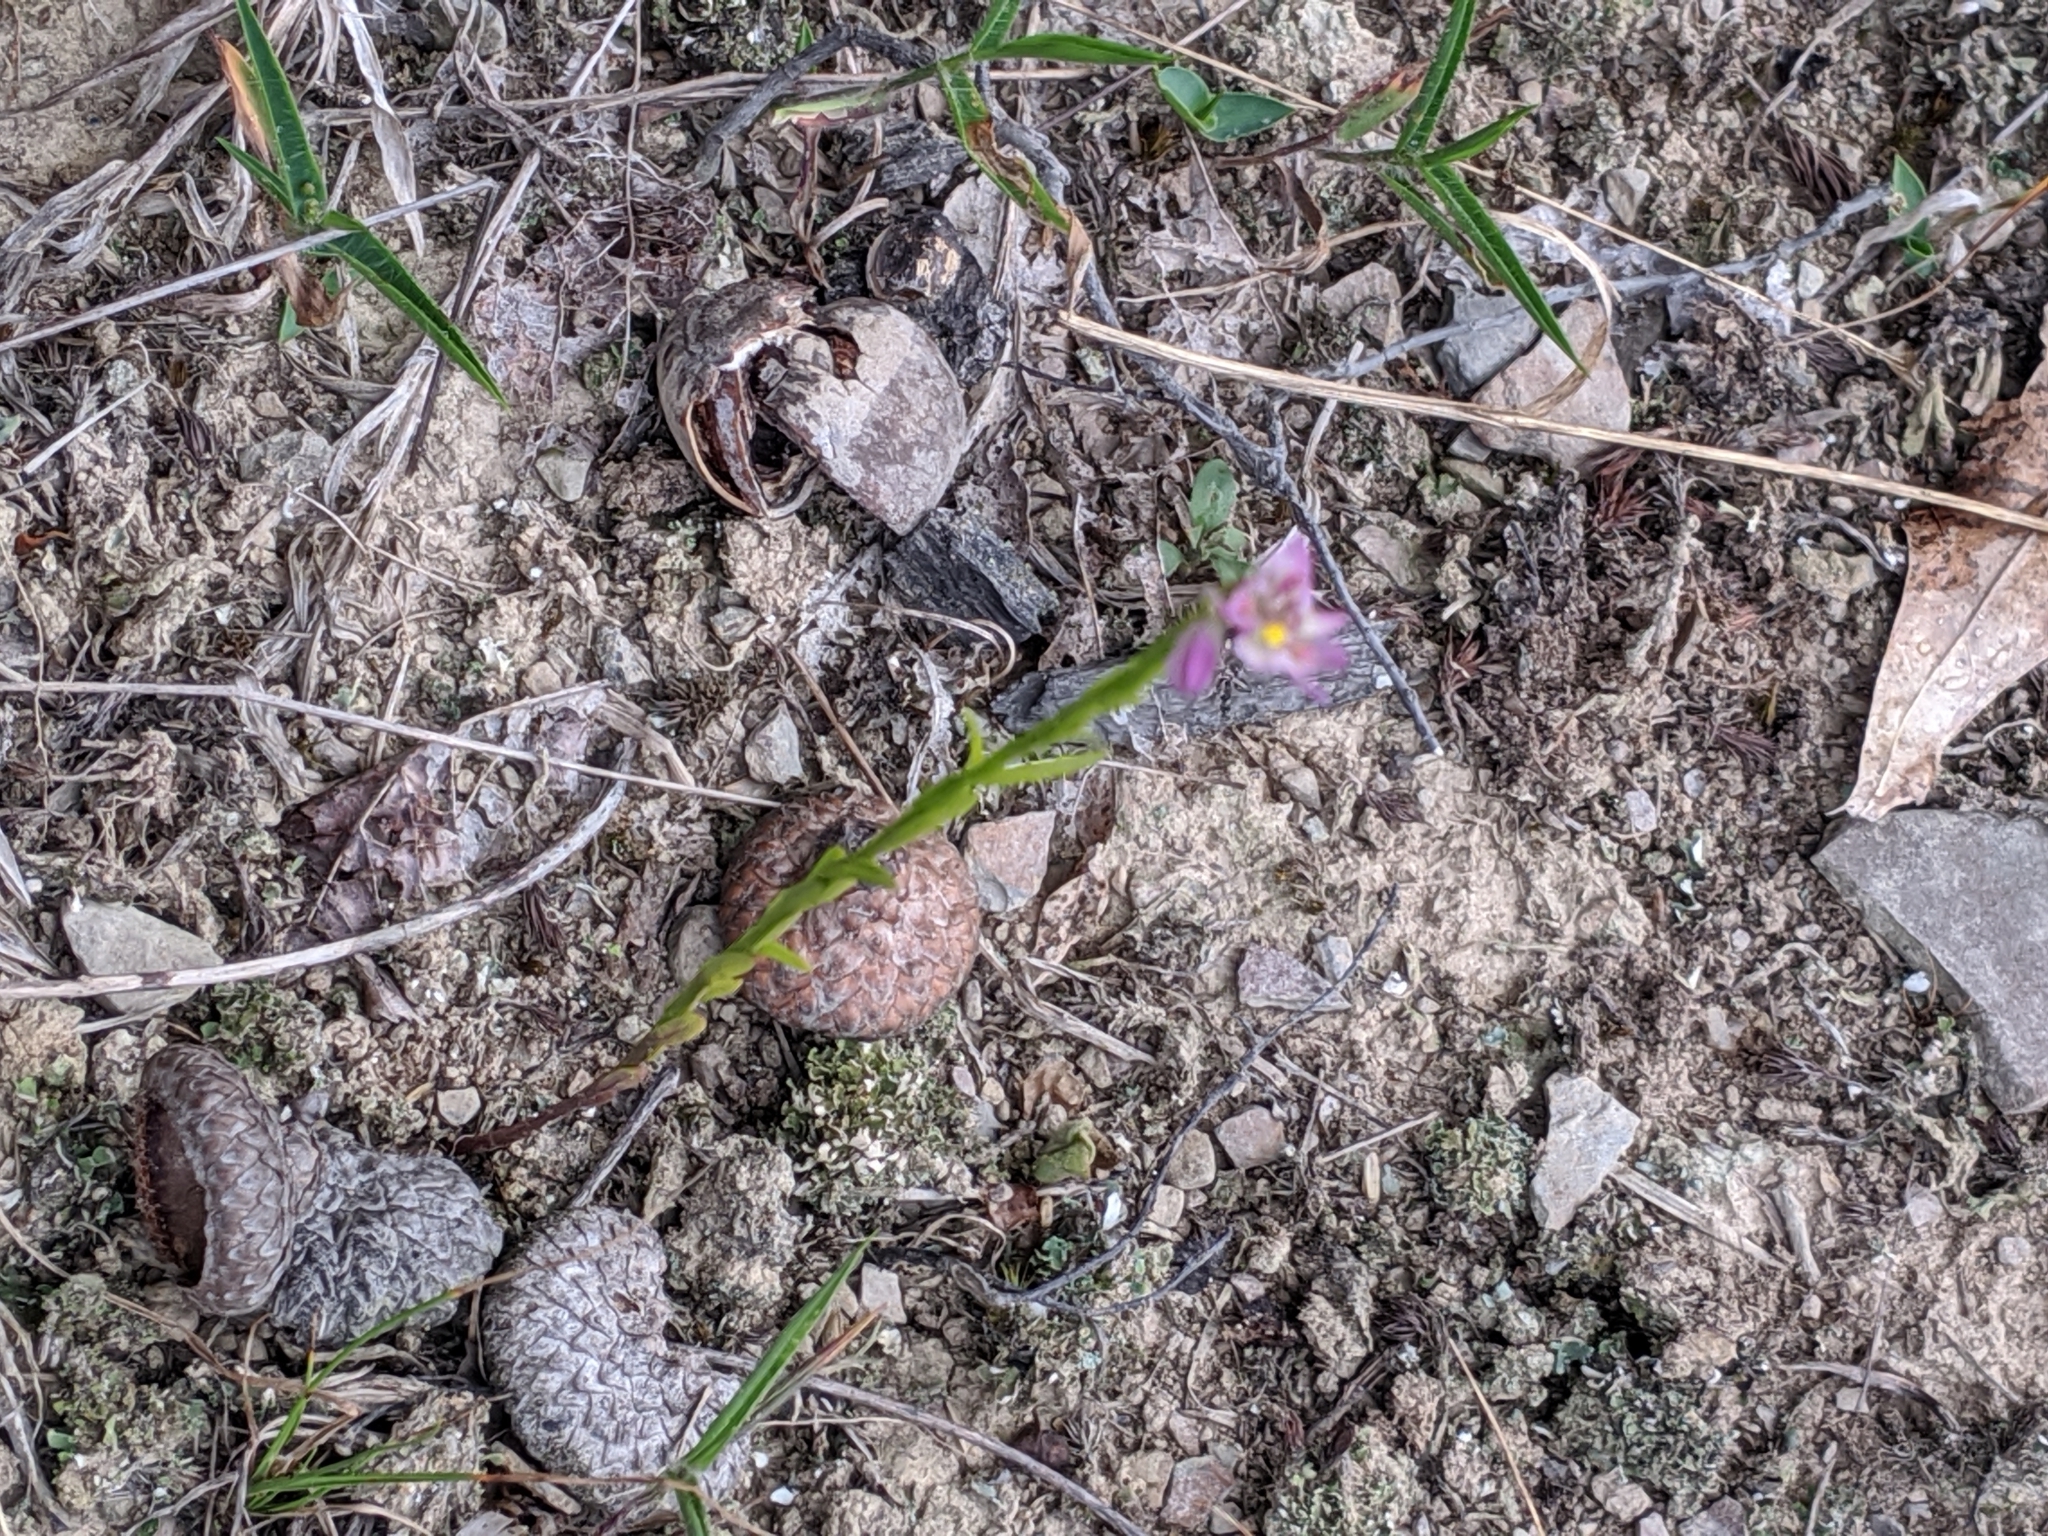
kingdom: Plantae
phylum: Tracheophyta
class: Magnoliopsida
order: Fabales
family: Polygalaceae
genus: Polygala
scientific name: Polygala sanguinea
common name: Blood milkwort
